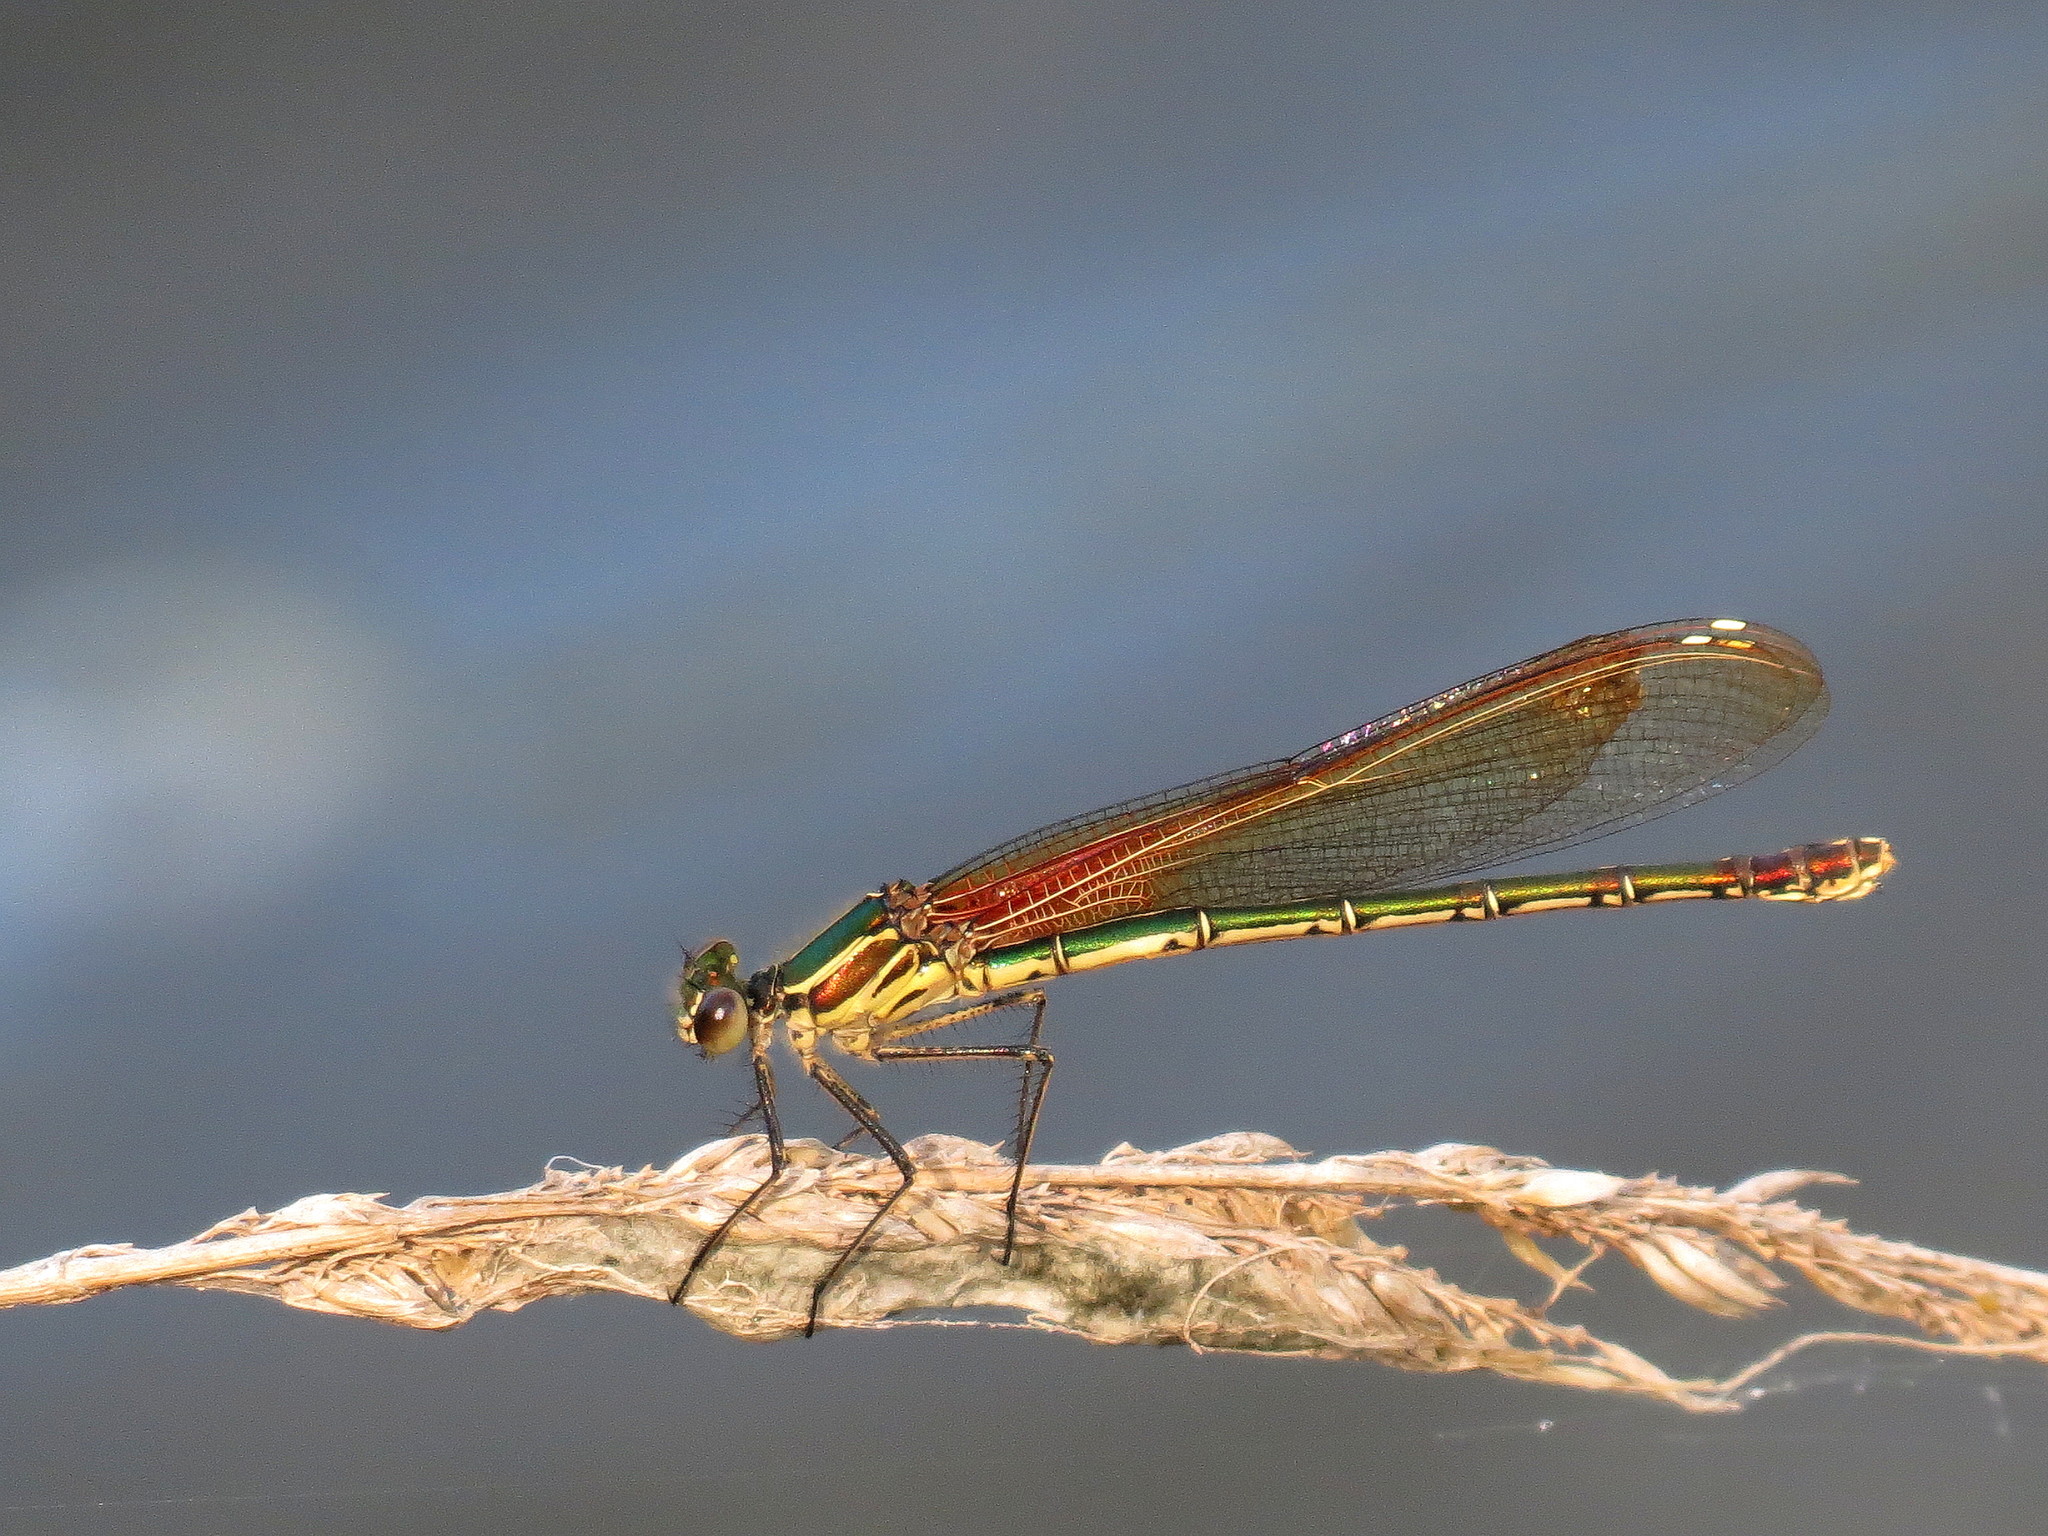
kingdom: Animalia
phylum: Arthropoda
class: Insecta
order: Odonata
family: Calopterygidae
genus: Hetaerina
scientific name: Hetaerina americana
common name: American rubyspot
